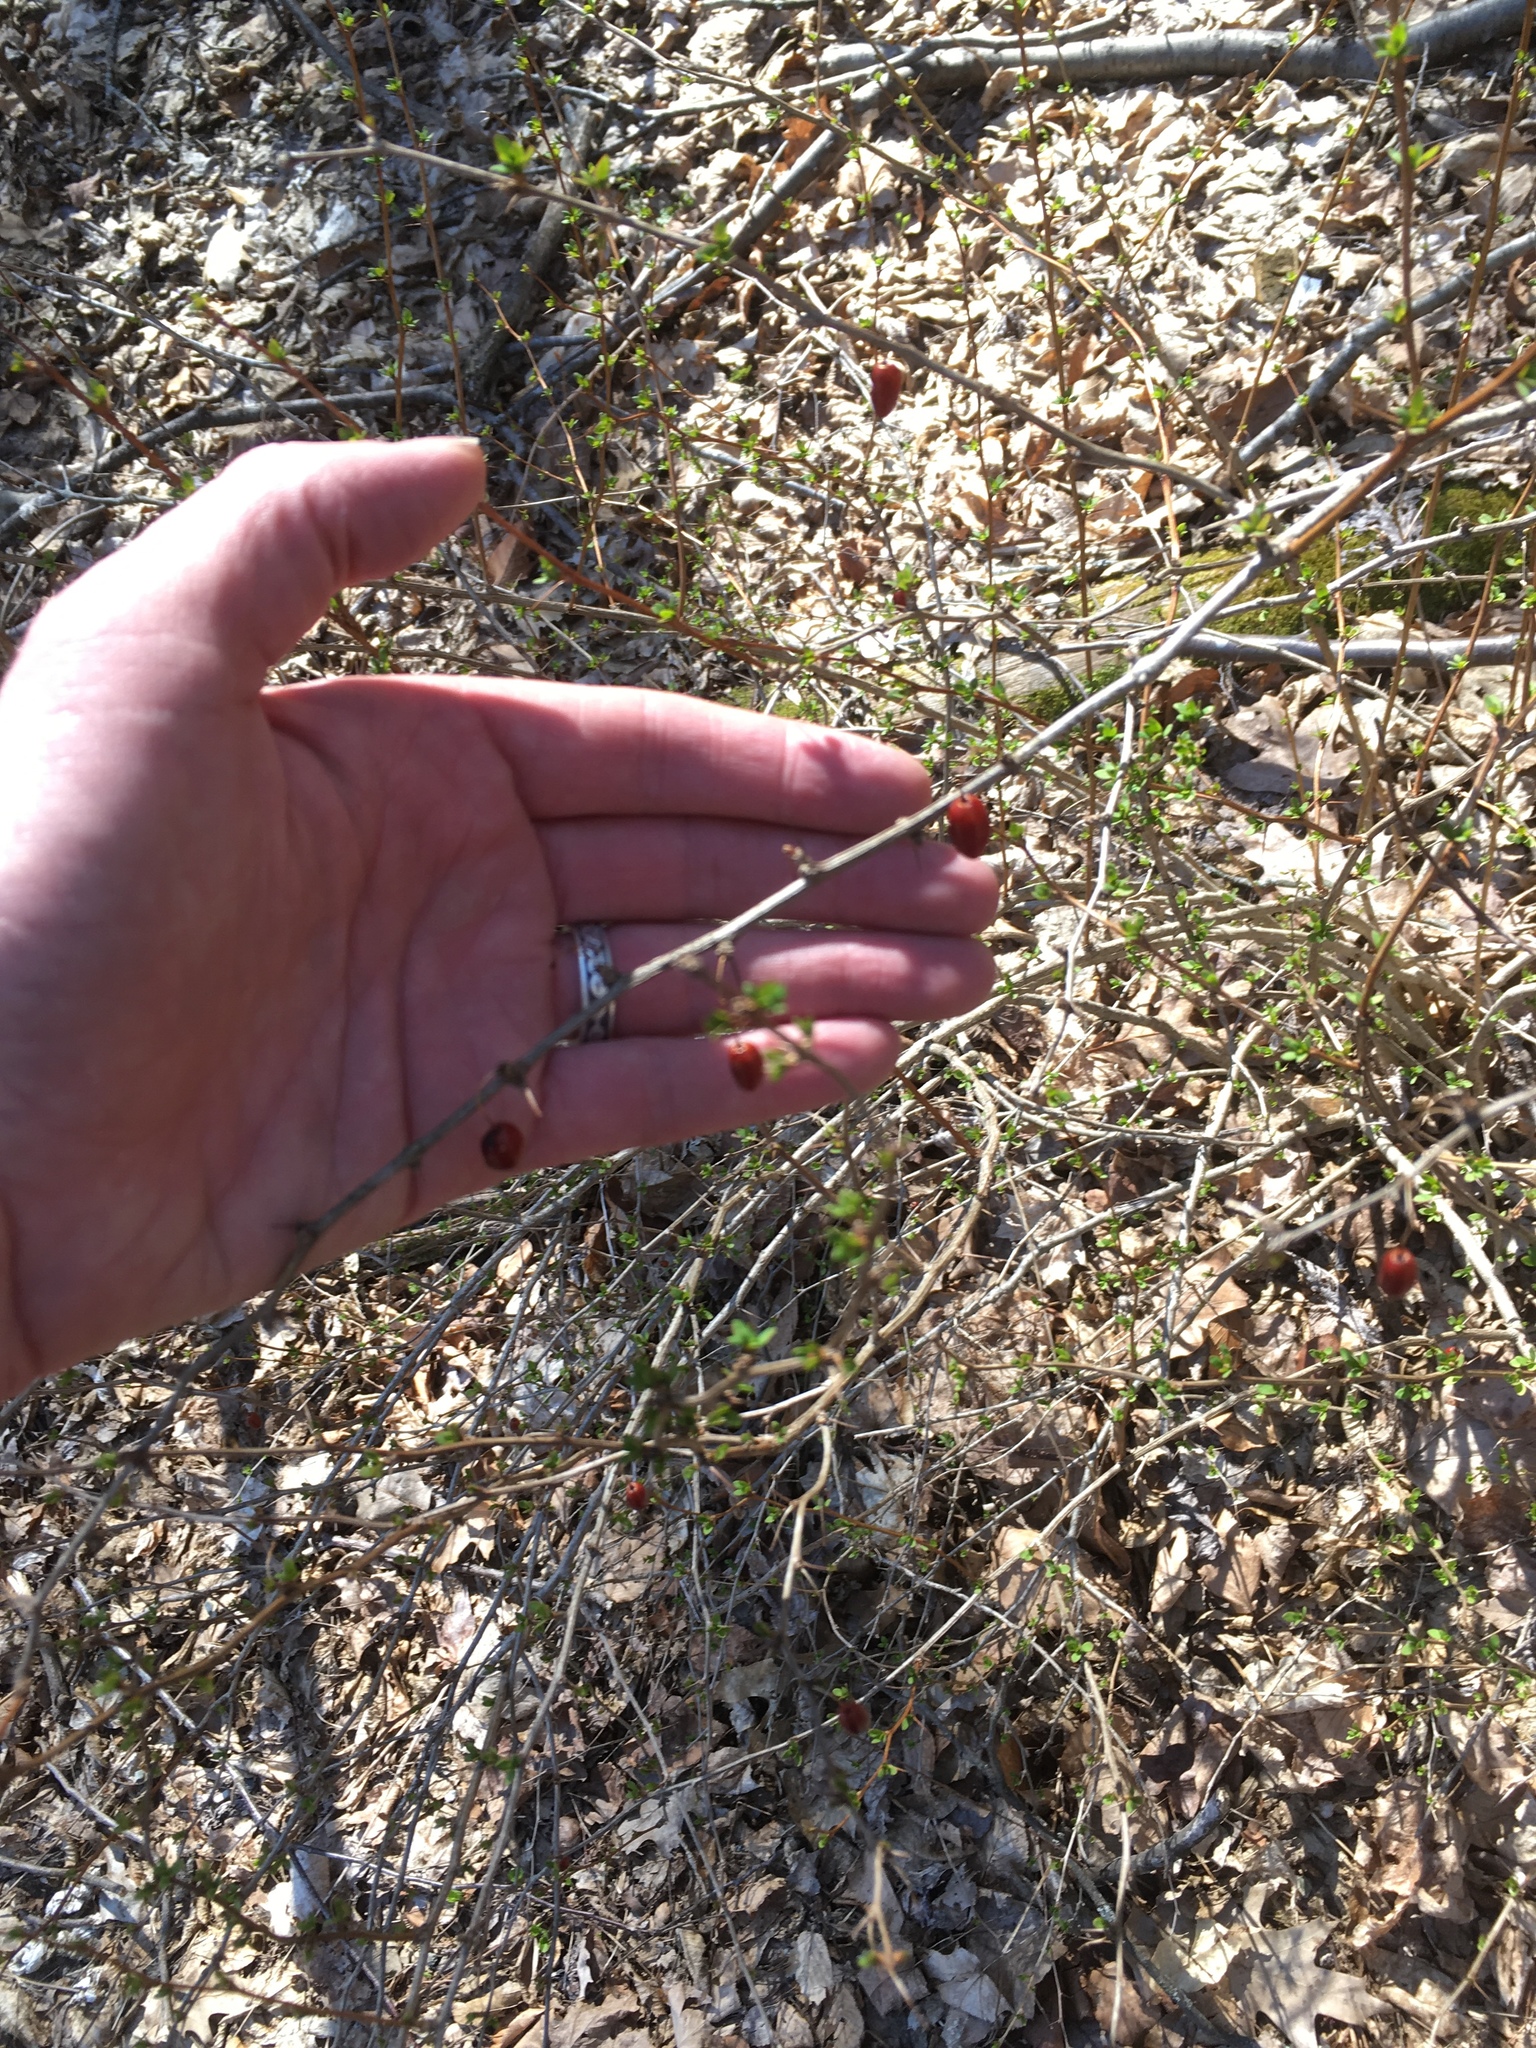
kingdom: Plantae
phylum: Tracheophyta
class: Magnoliopsida
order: Ranunculales
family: Berberidaceae
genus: Berberis
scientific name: Berberis thunbergii
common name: Japanese barberry
